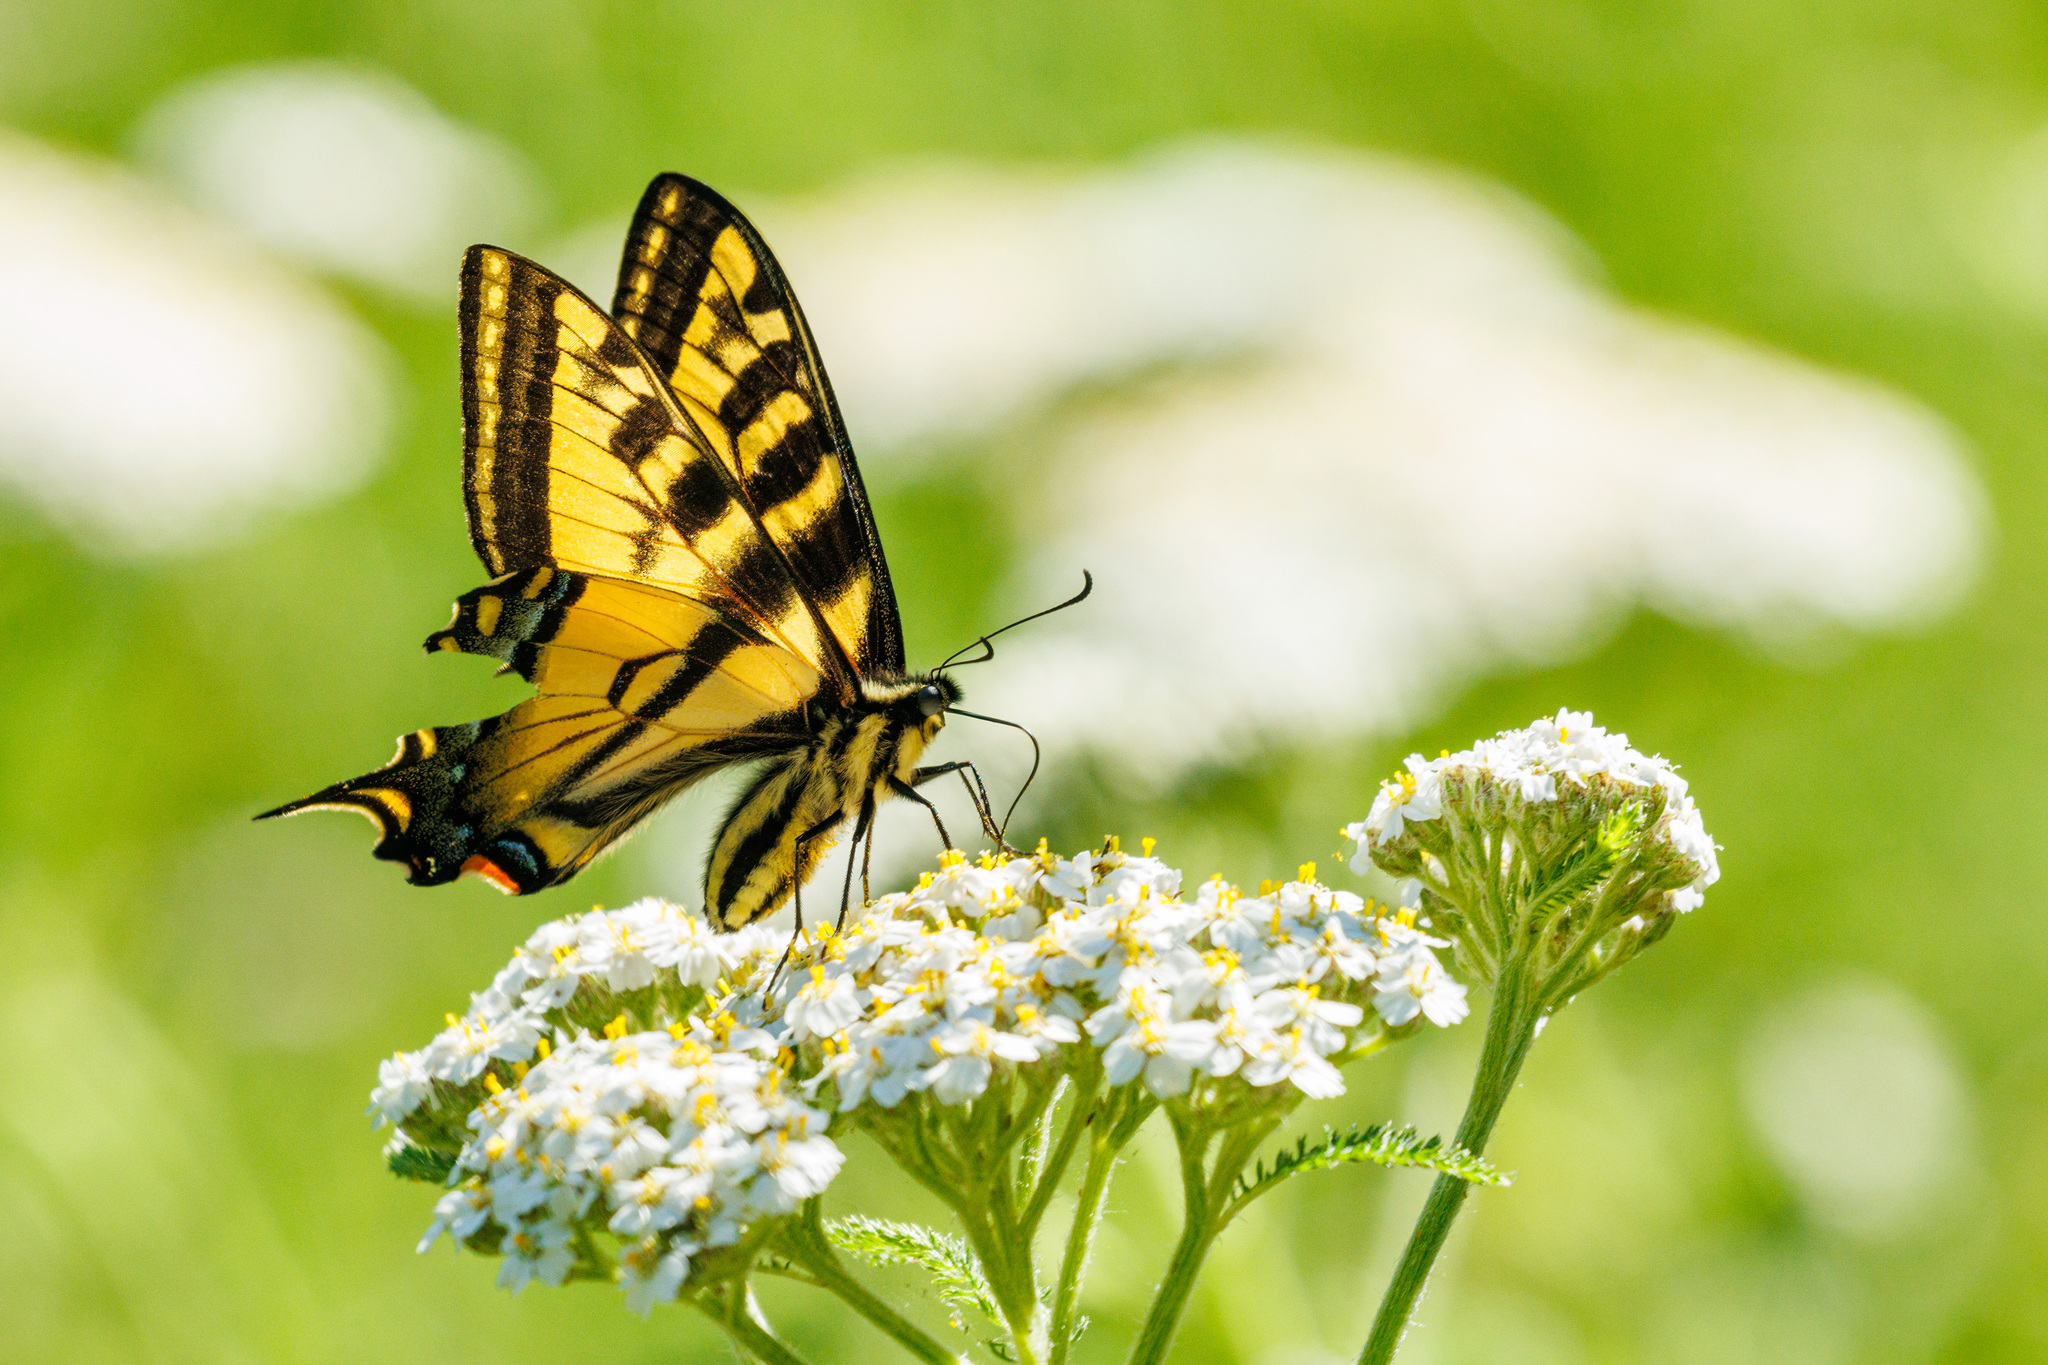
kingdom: Animalia
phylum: Arthropoda
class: Insecta
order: Lepidoptera
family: Papilionidae
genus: Papilio
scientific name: Papilio rutulus
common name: Western tiger swallowtail
